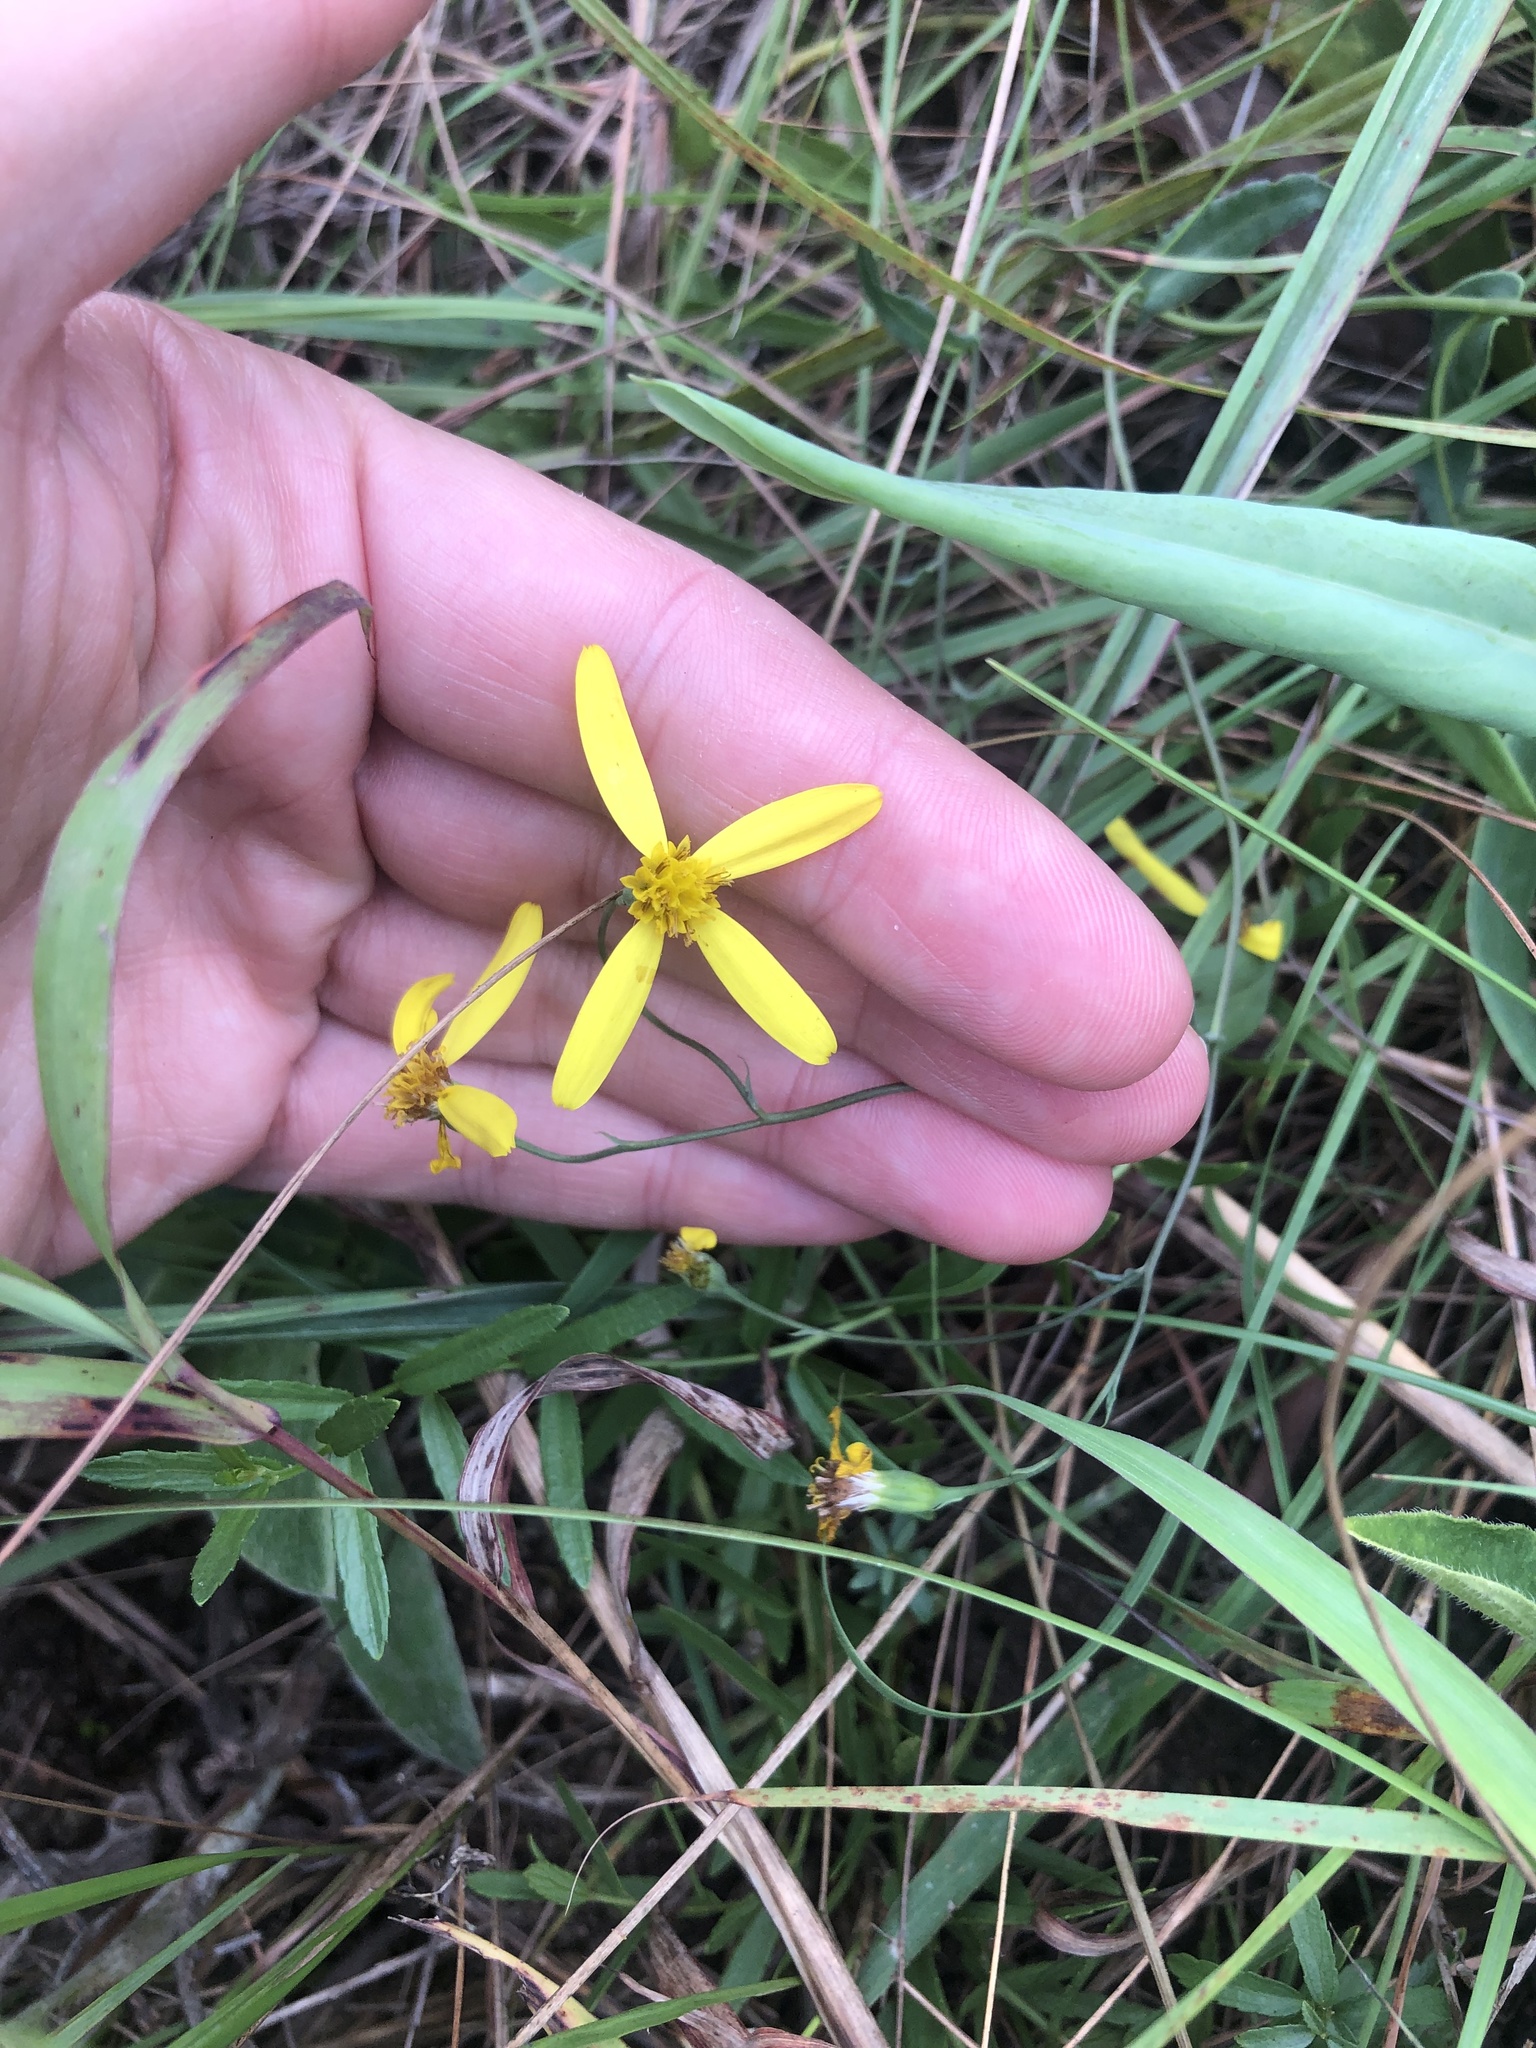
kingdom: Plantae
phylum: Tracheophyta
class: Magnoliopsida
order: Asterales
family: Asteraceae
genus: Senecio
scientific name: Senecio bupleuroides
